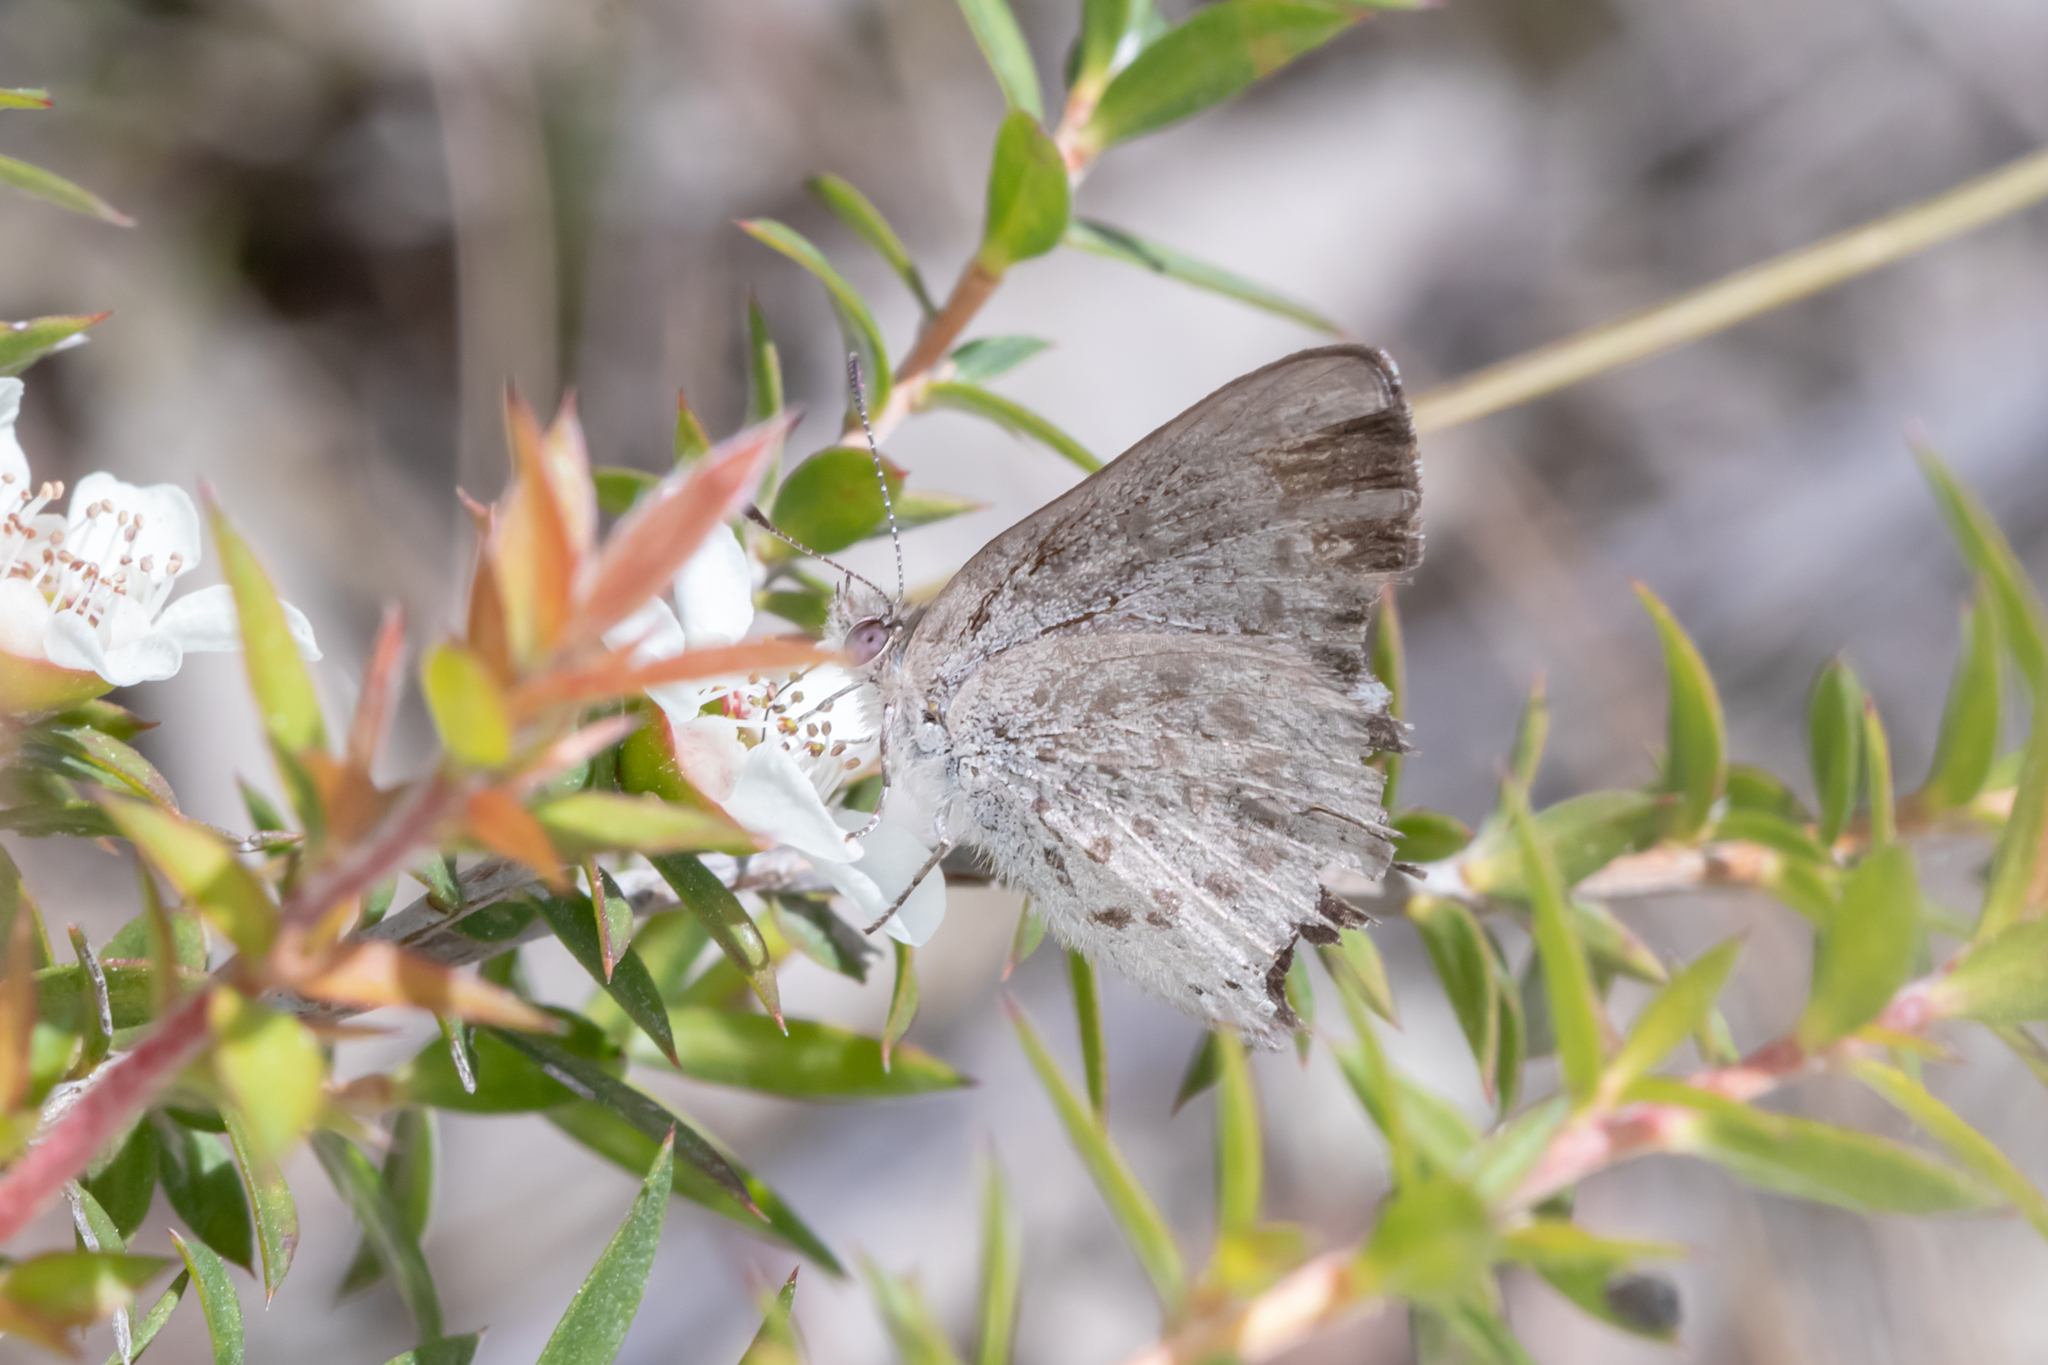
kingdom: Animalia
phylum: Arthropoda
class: Insecta
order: Lepidoptera
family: Lycaenidae
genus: Candalides
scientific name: Candalides
